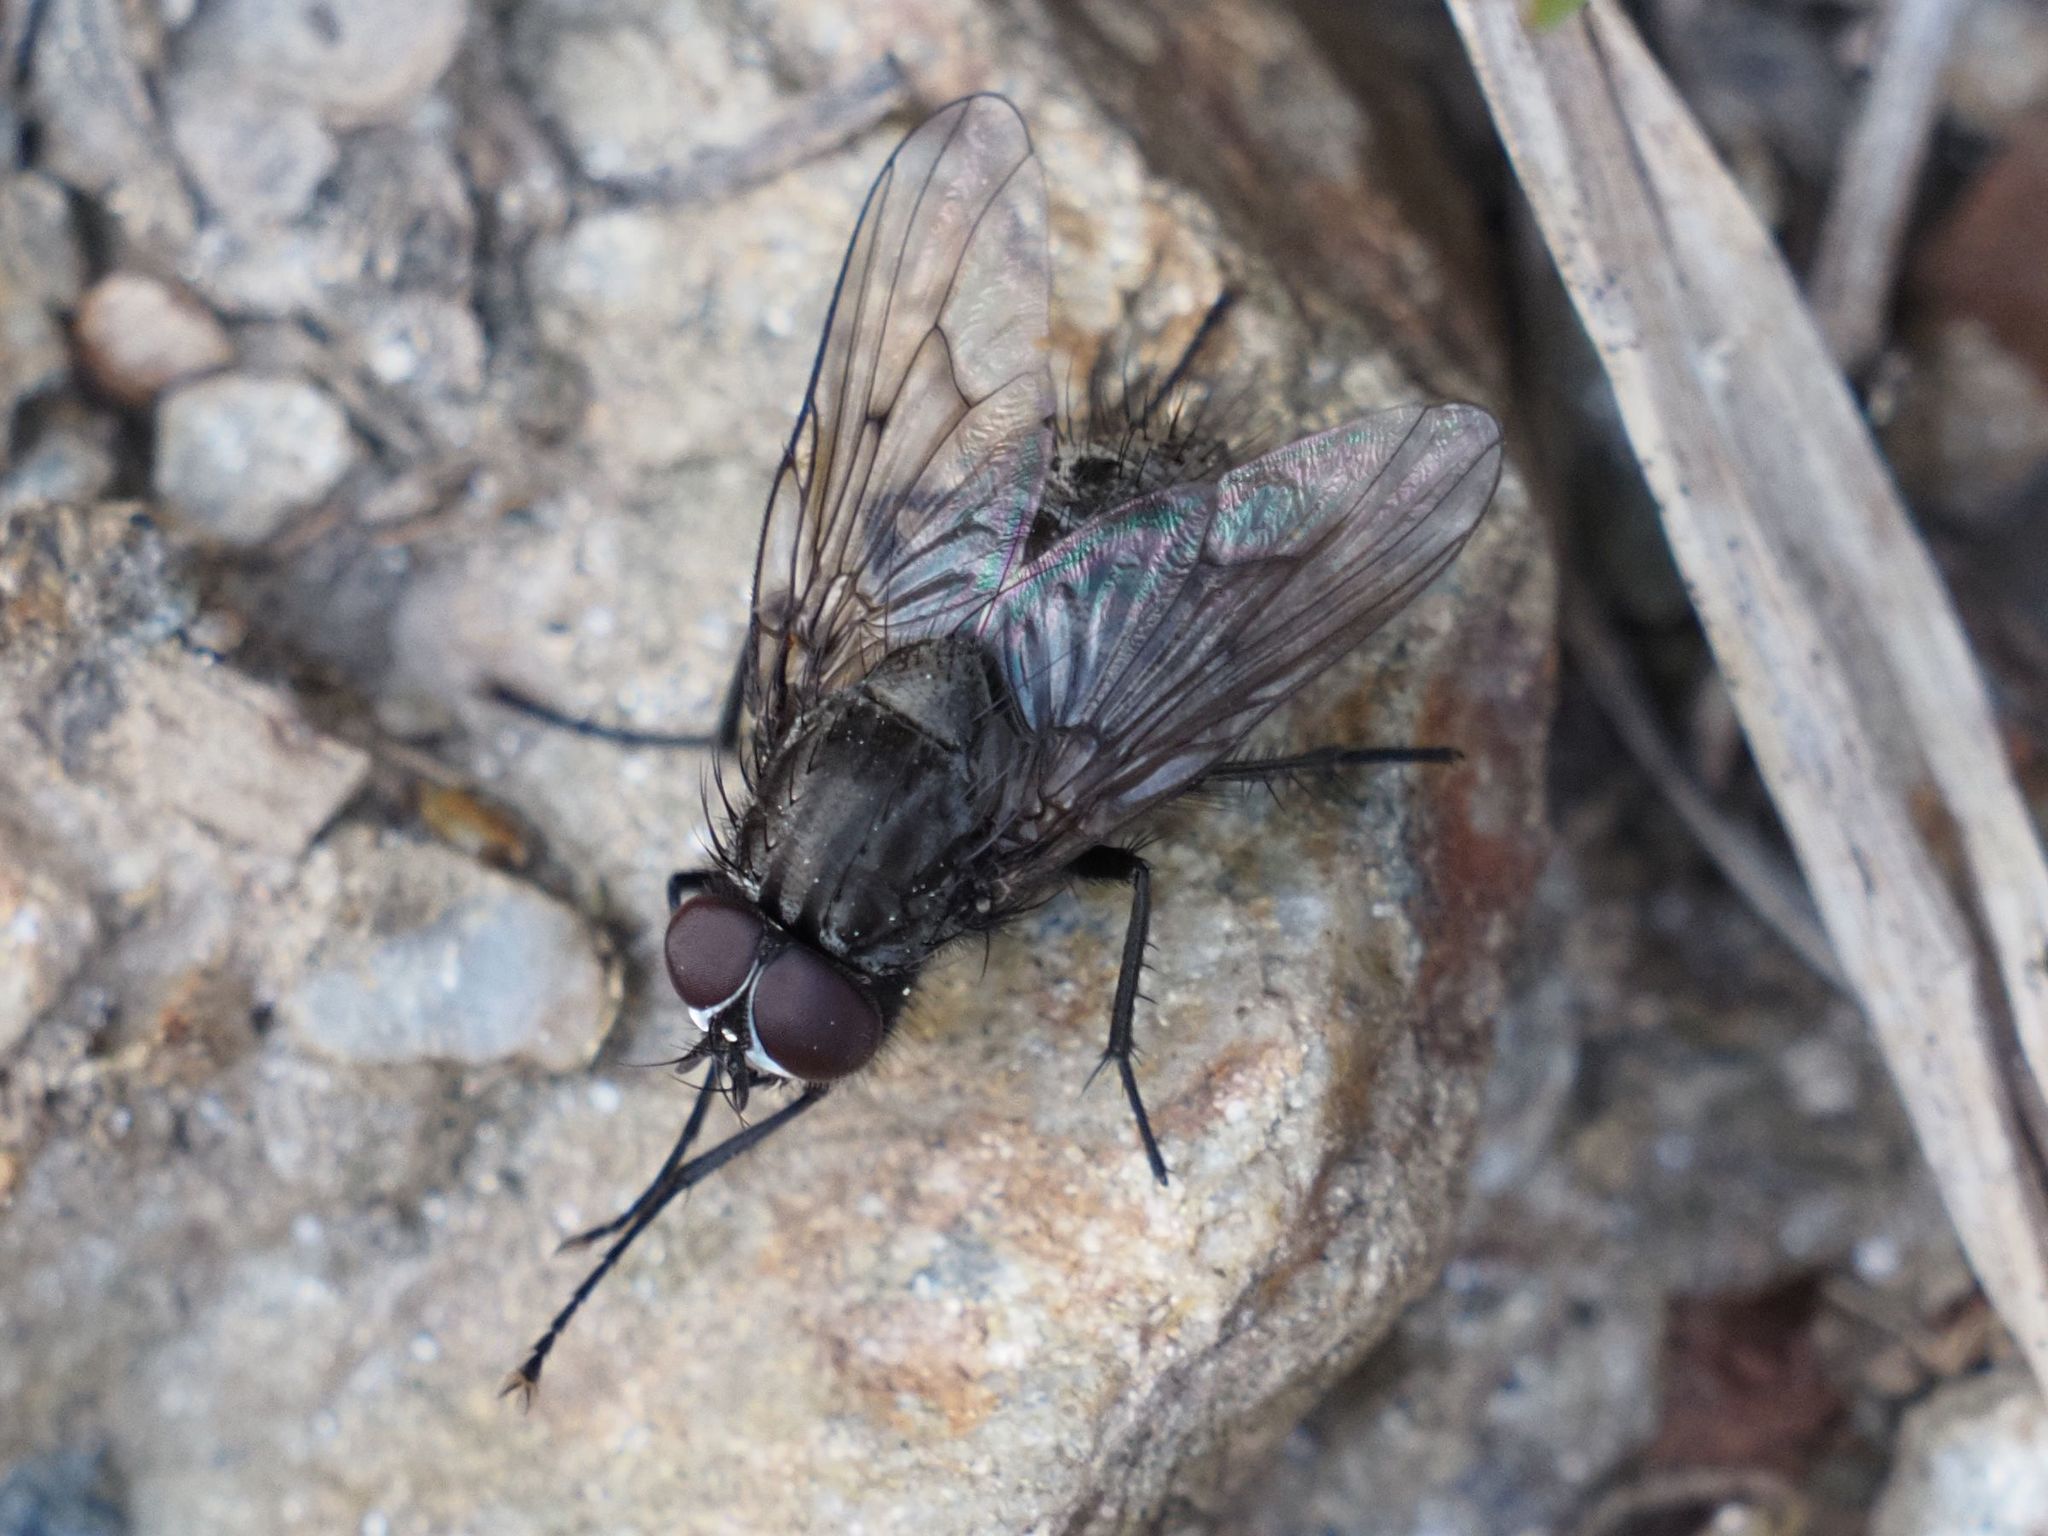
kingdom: Animalia
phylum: Arthropoda
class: Insecta
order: Diptera
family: Muscidae
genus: Helina
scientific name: Helina evecta
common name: Muscid fly
